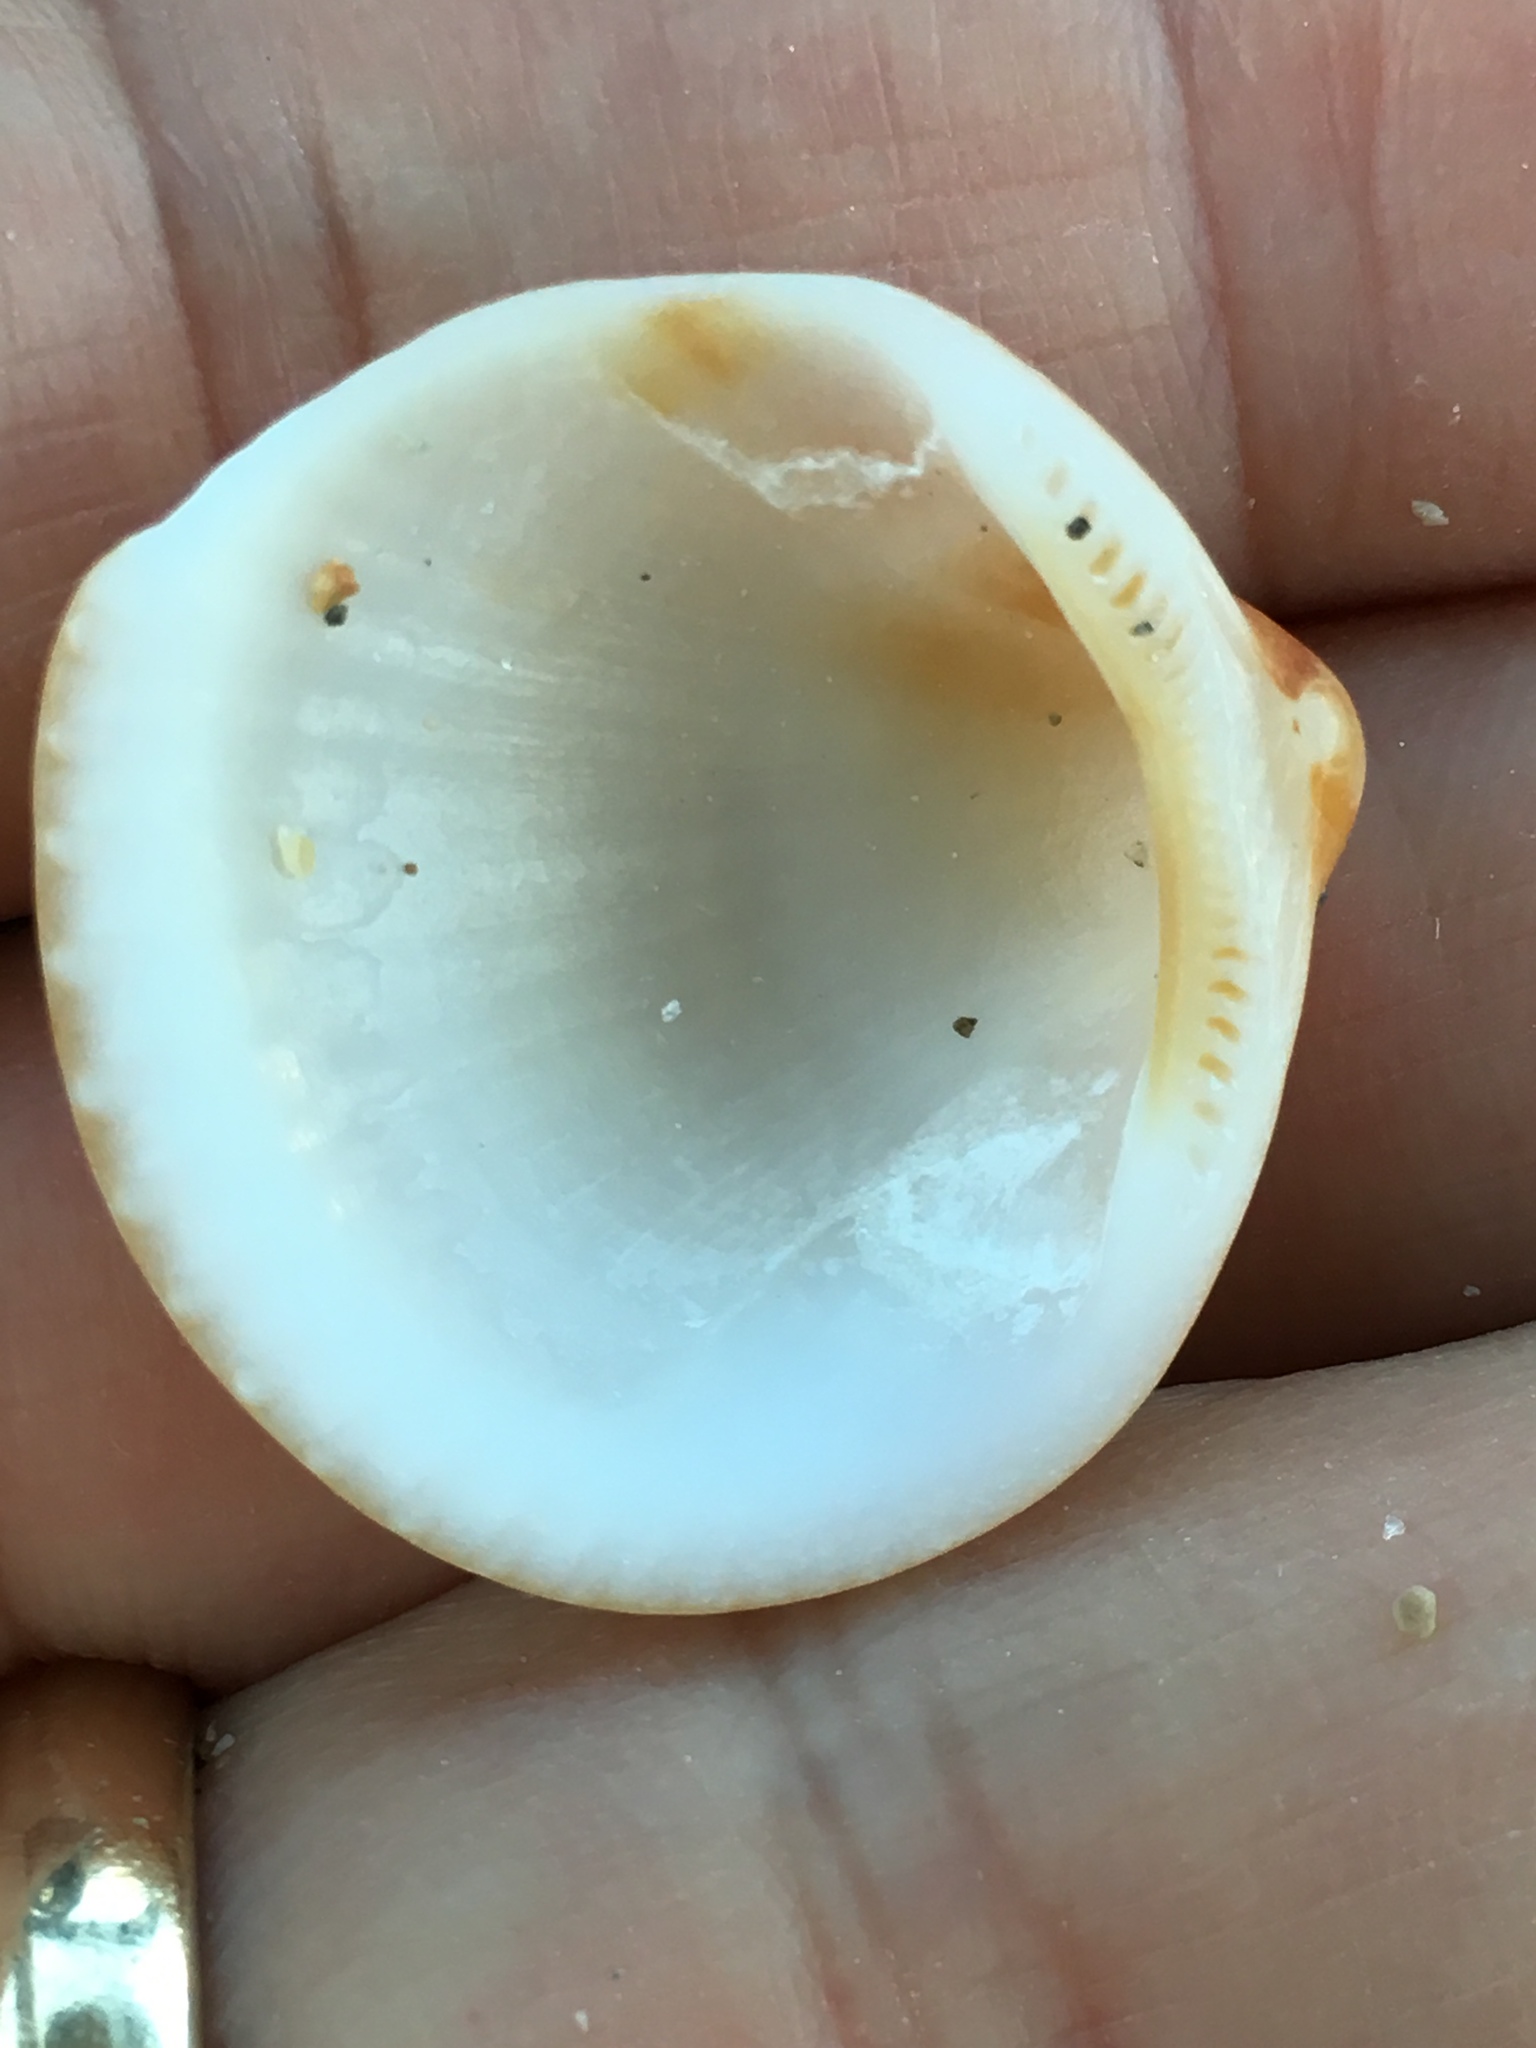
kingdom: Animalia
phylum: Mollusca
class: Bivalvia
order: Arcida
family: Glycymerididae
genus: Glycymeris
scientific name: Glycymeris spectralis
